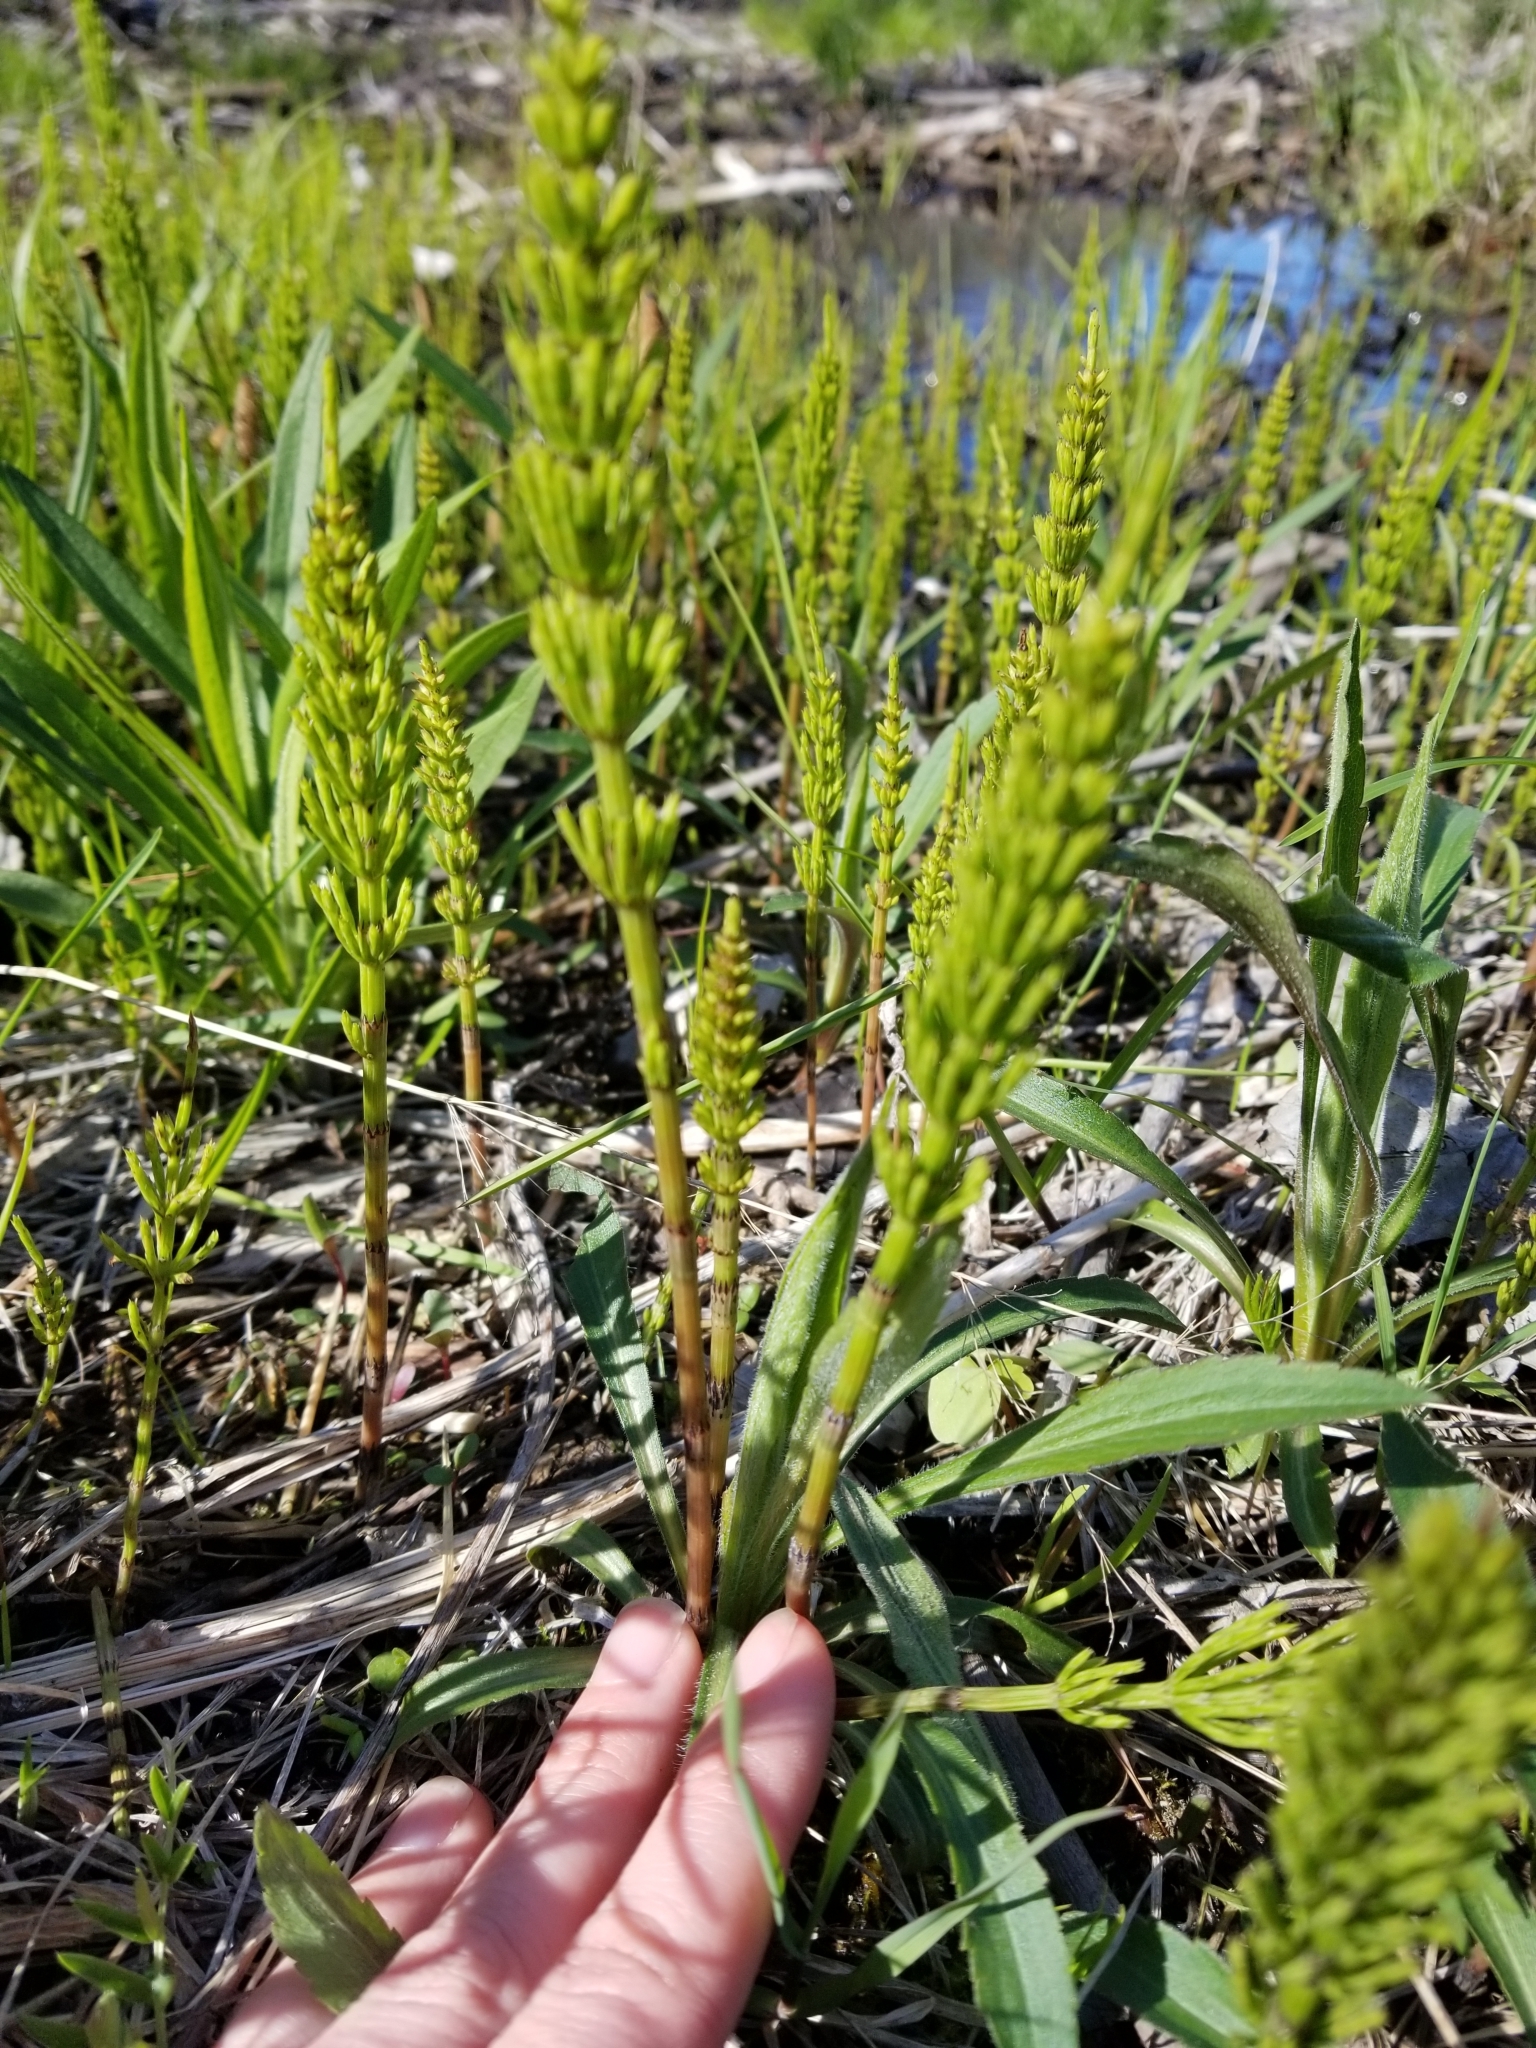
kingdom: Plantae
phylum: Tracheophyta
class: Polypodiopsida
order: Equisetales
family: Equisetaceae
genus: Equisetum
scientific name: Equisetum arvense
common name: Field horsetail
